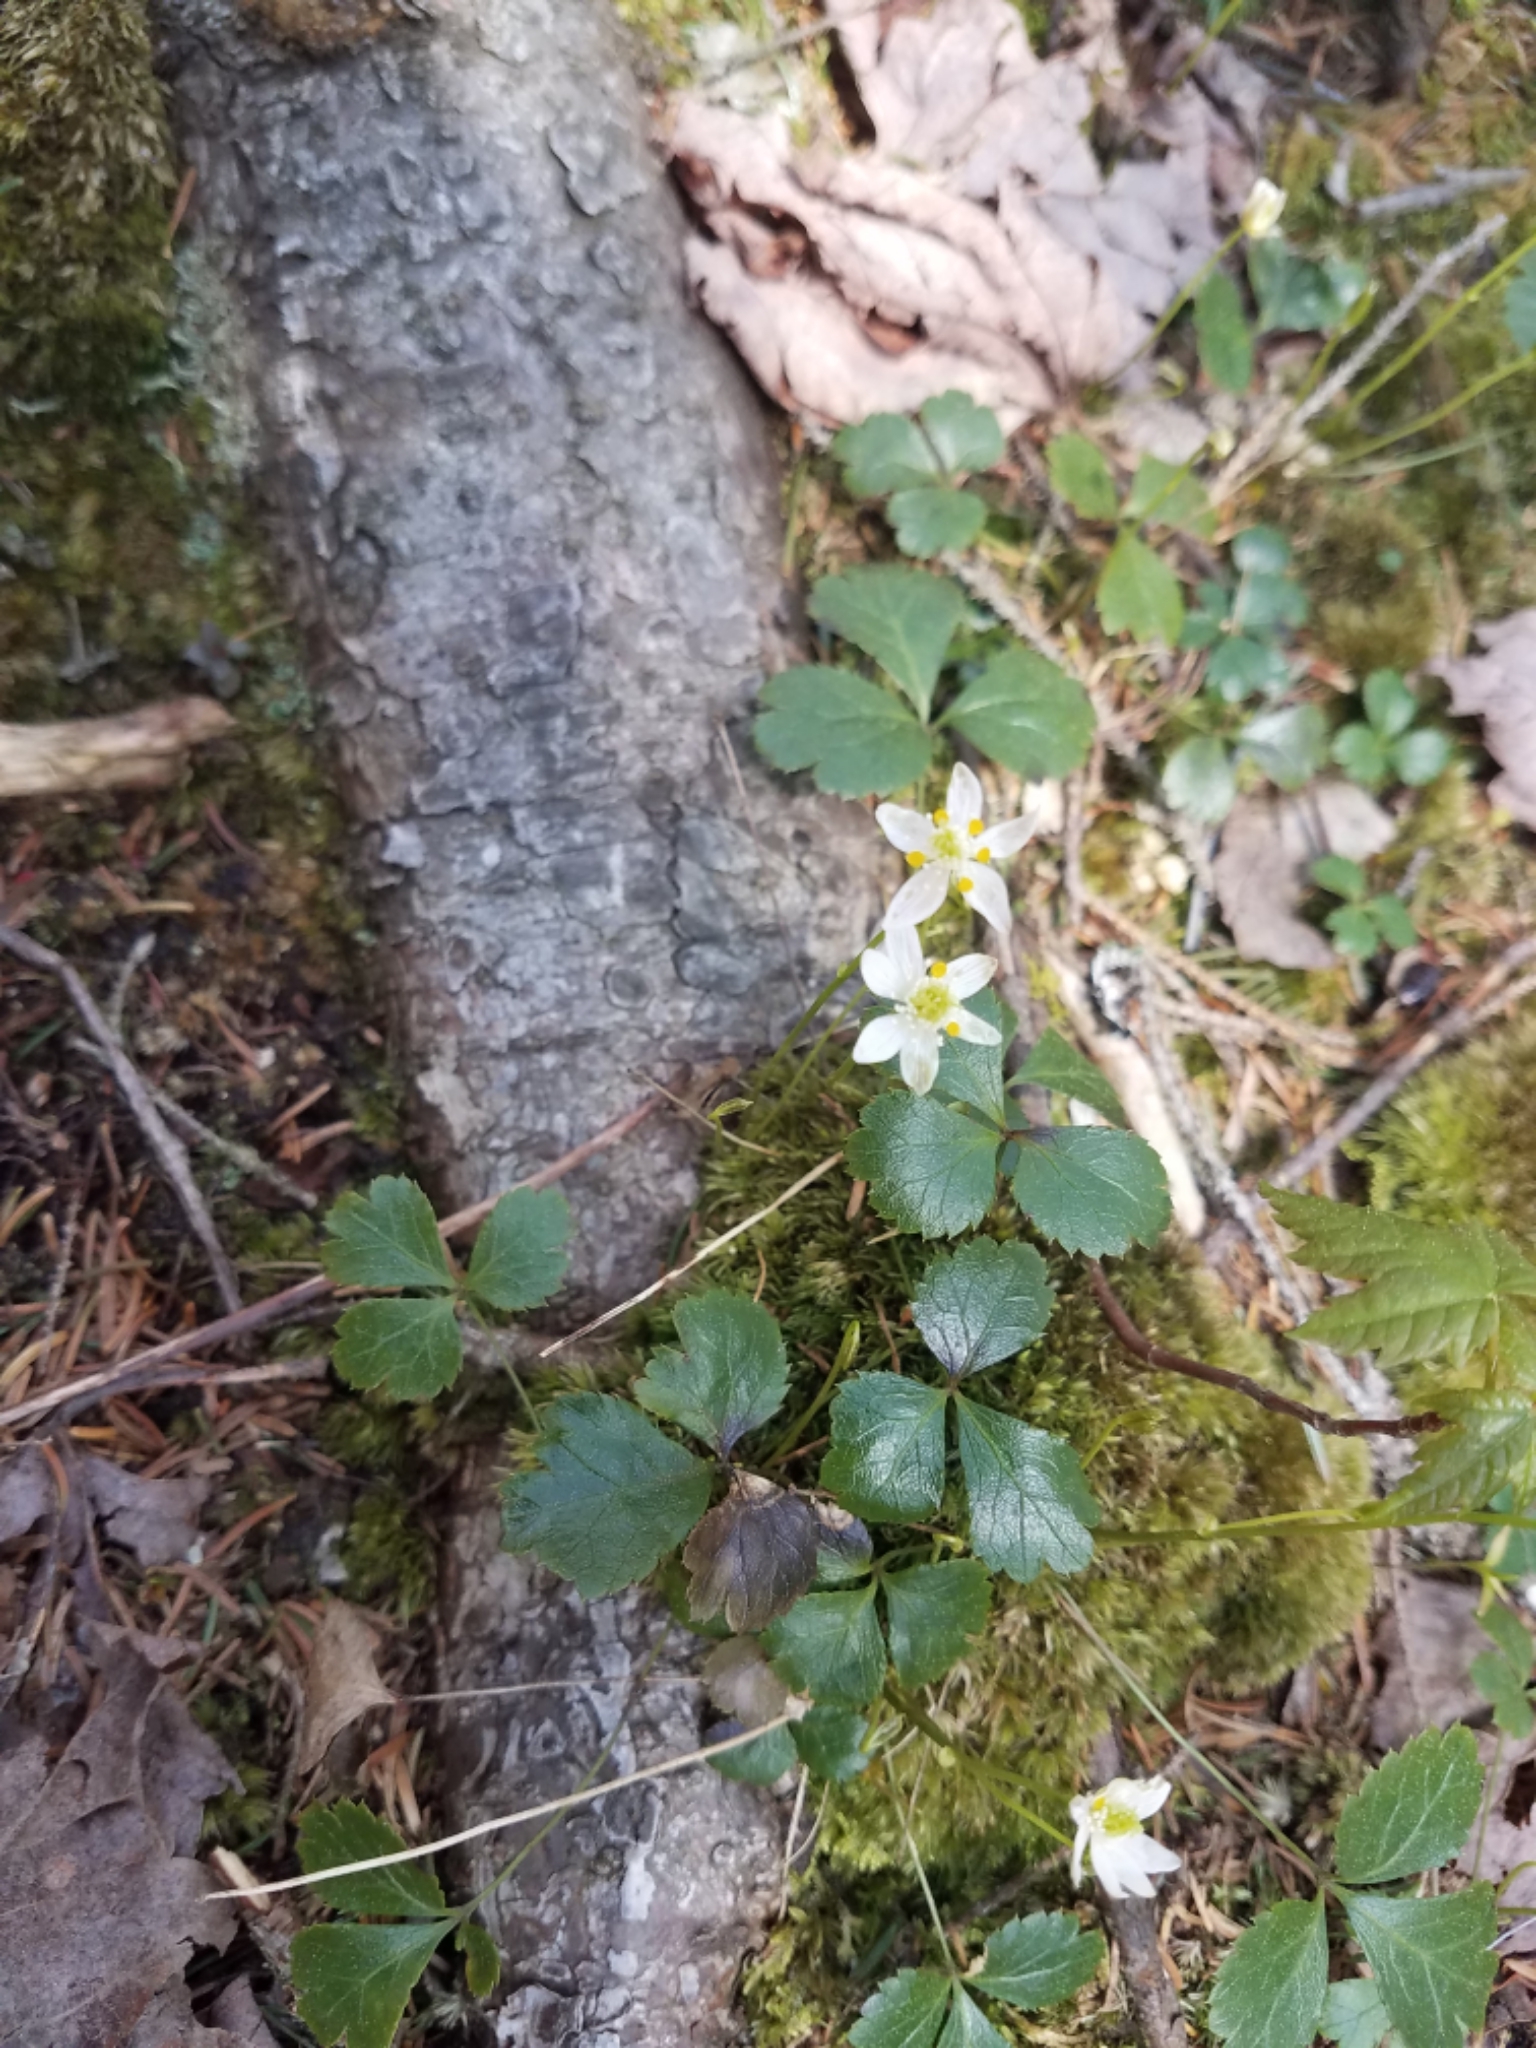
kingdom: Plantae
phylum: Tracheophyta
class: Magnoliopsida
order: Ranunculales
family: Ranunculaceae
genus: Coptis
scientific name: Coptis trifolia
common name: Canker-root
